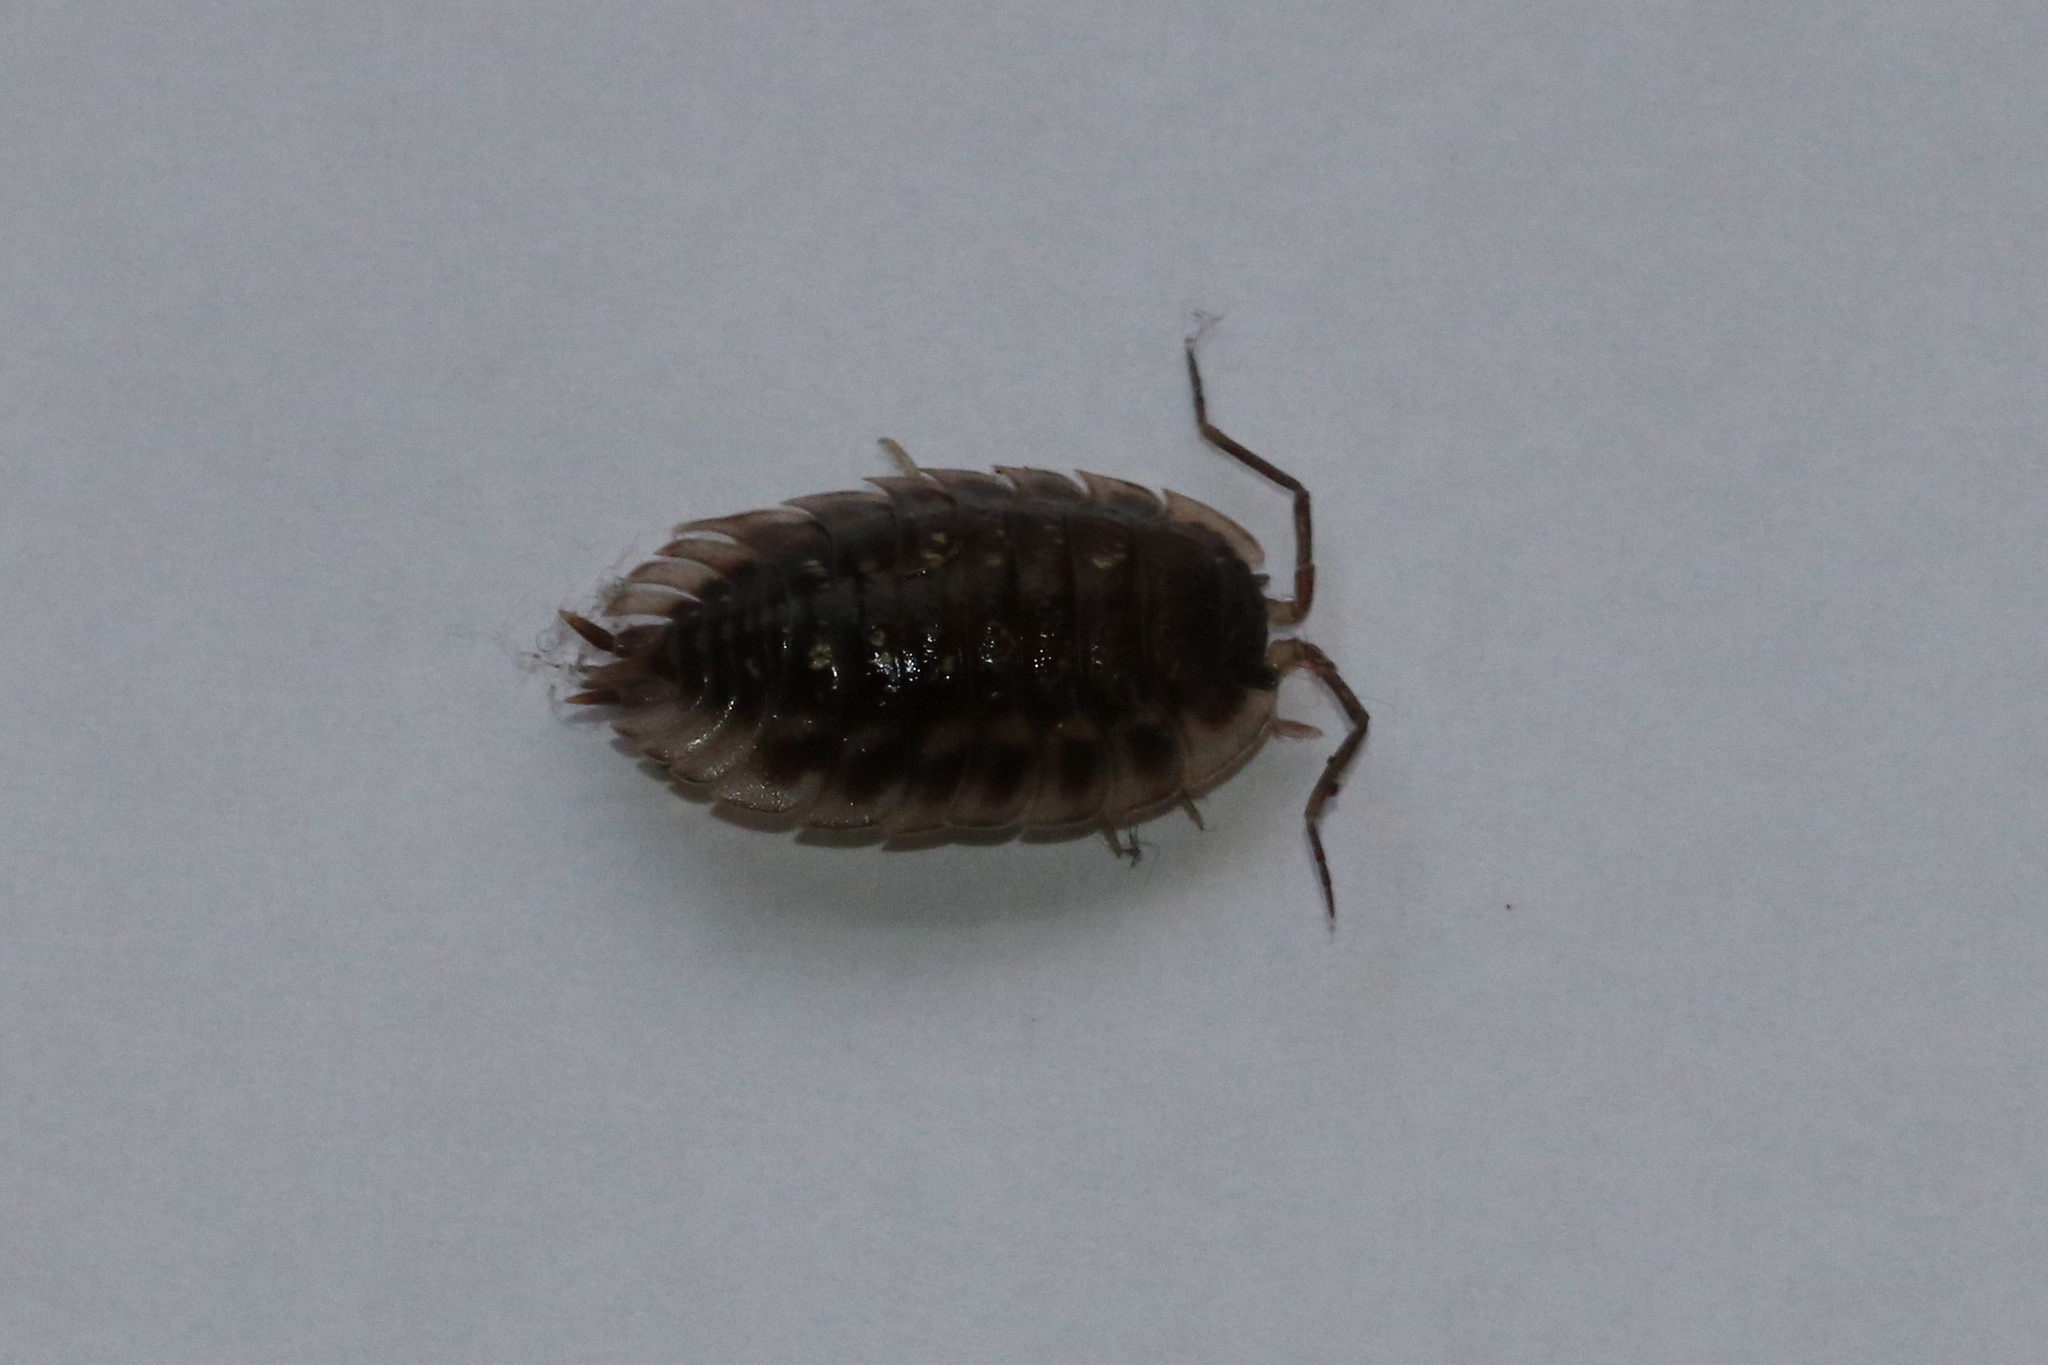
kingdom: Animalia
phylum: Arthropoda
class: Malacostraca
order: Isopoda
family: Oniscidae
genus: Oniscus
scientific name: Oniscus asellus
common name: Common shiny woodlouse
